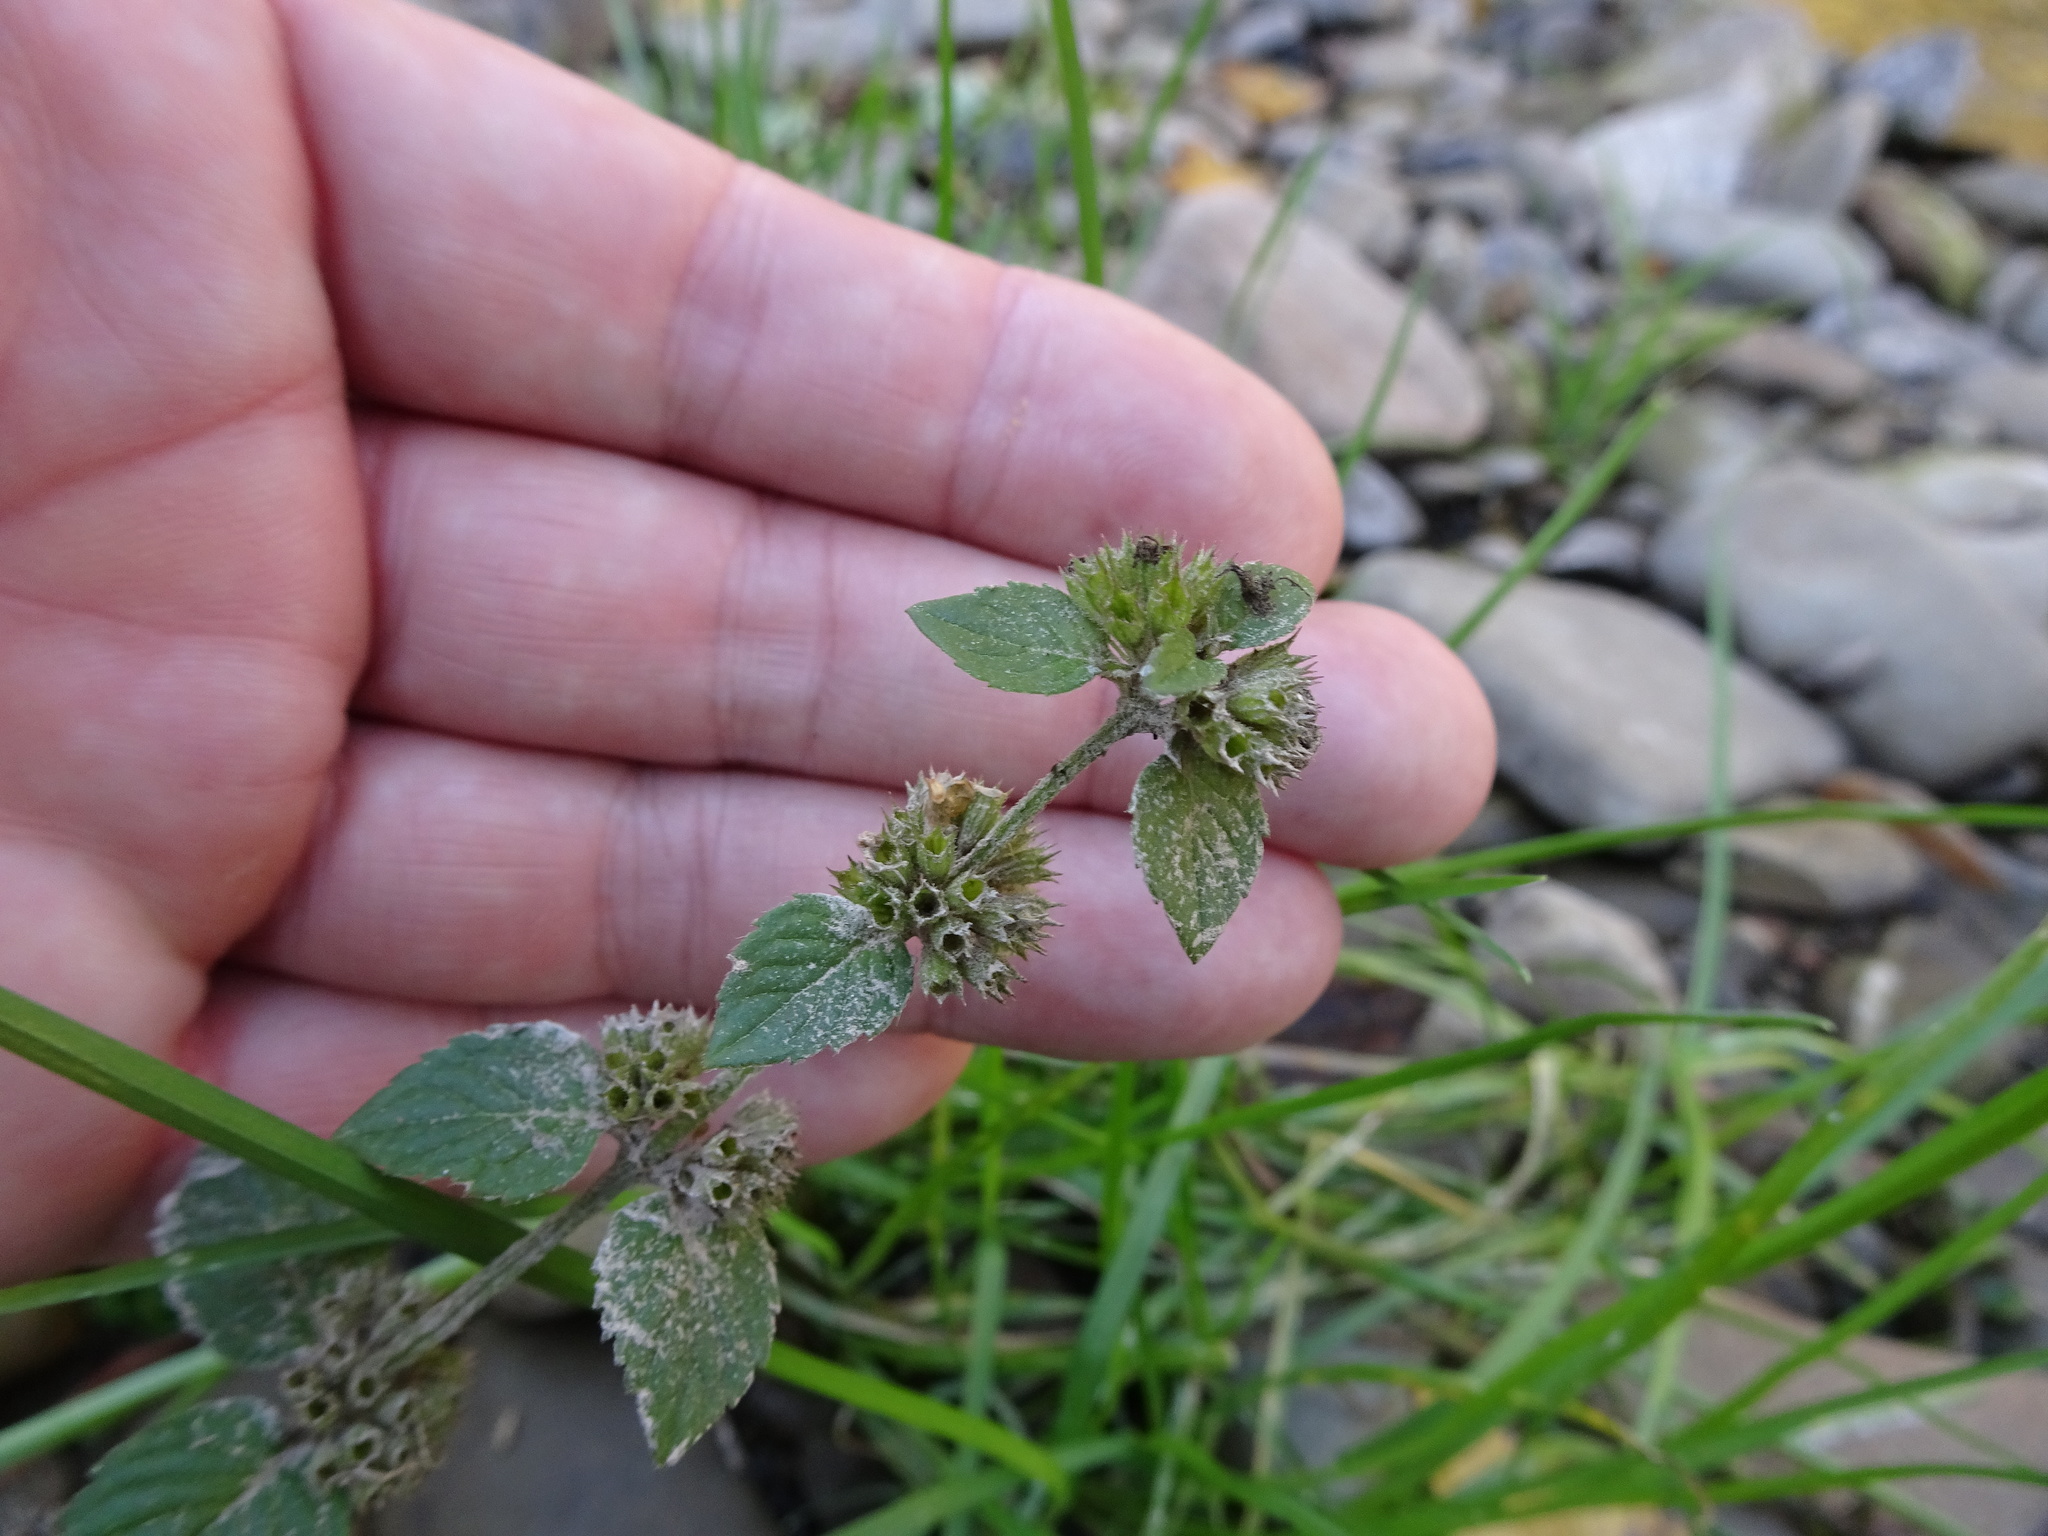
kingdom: Plantae
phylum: Tracheophyta
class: Magnoliopsida
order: Lamiales
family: Lamiaceae
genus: Mentha
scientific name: Mentha verticillata
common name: Mint
